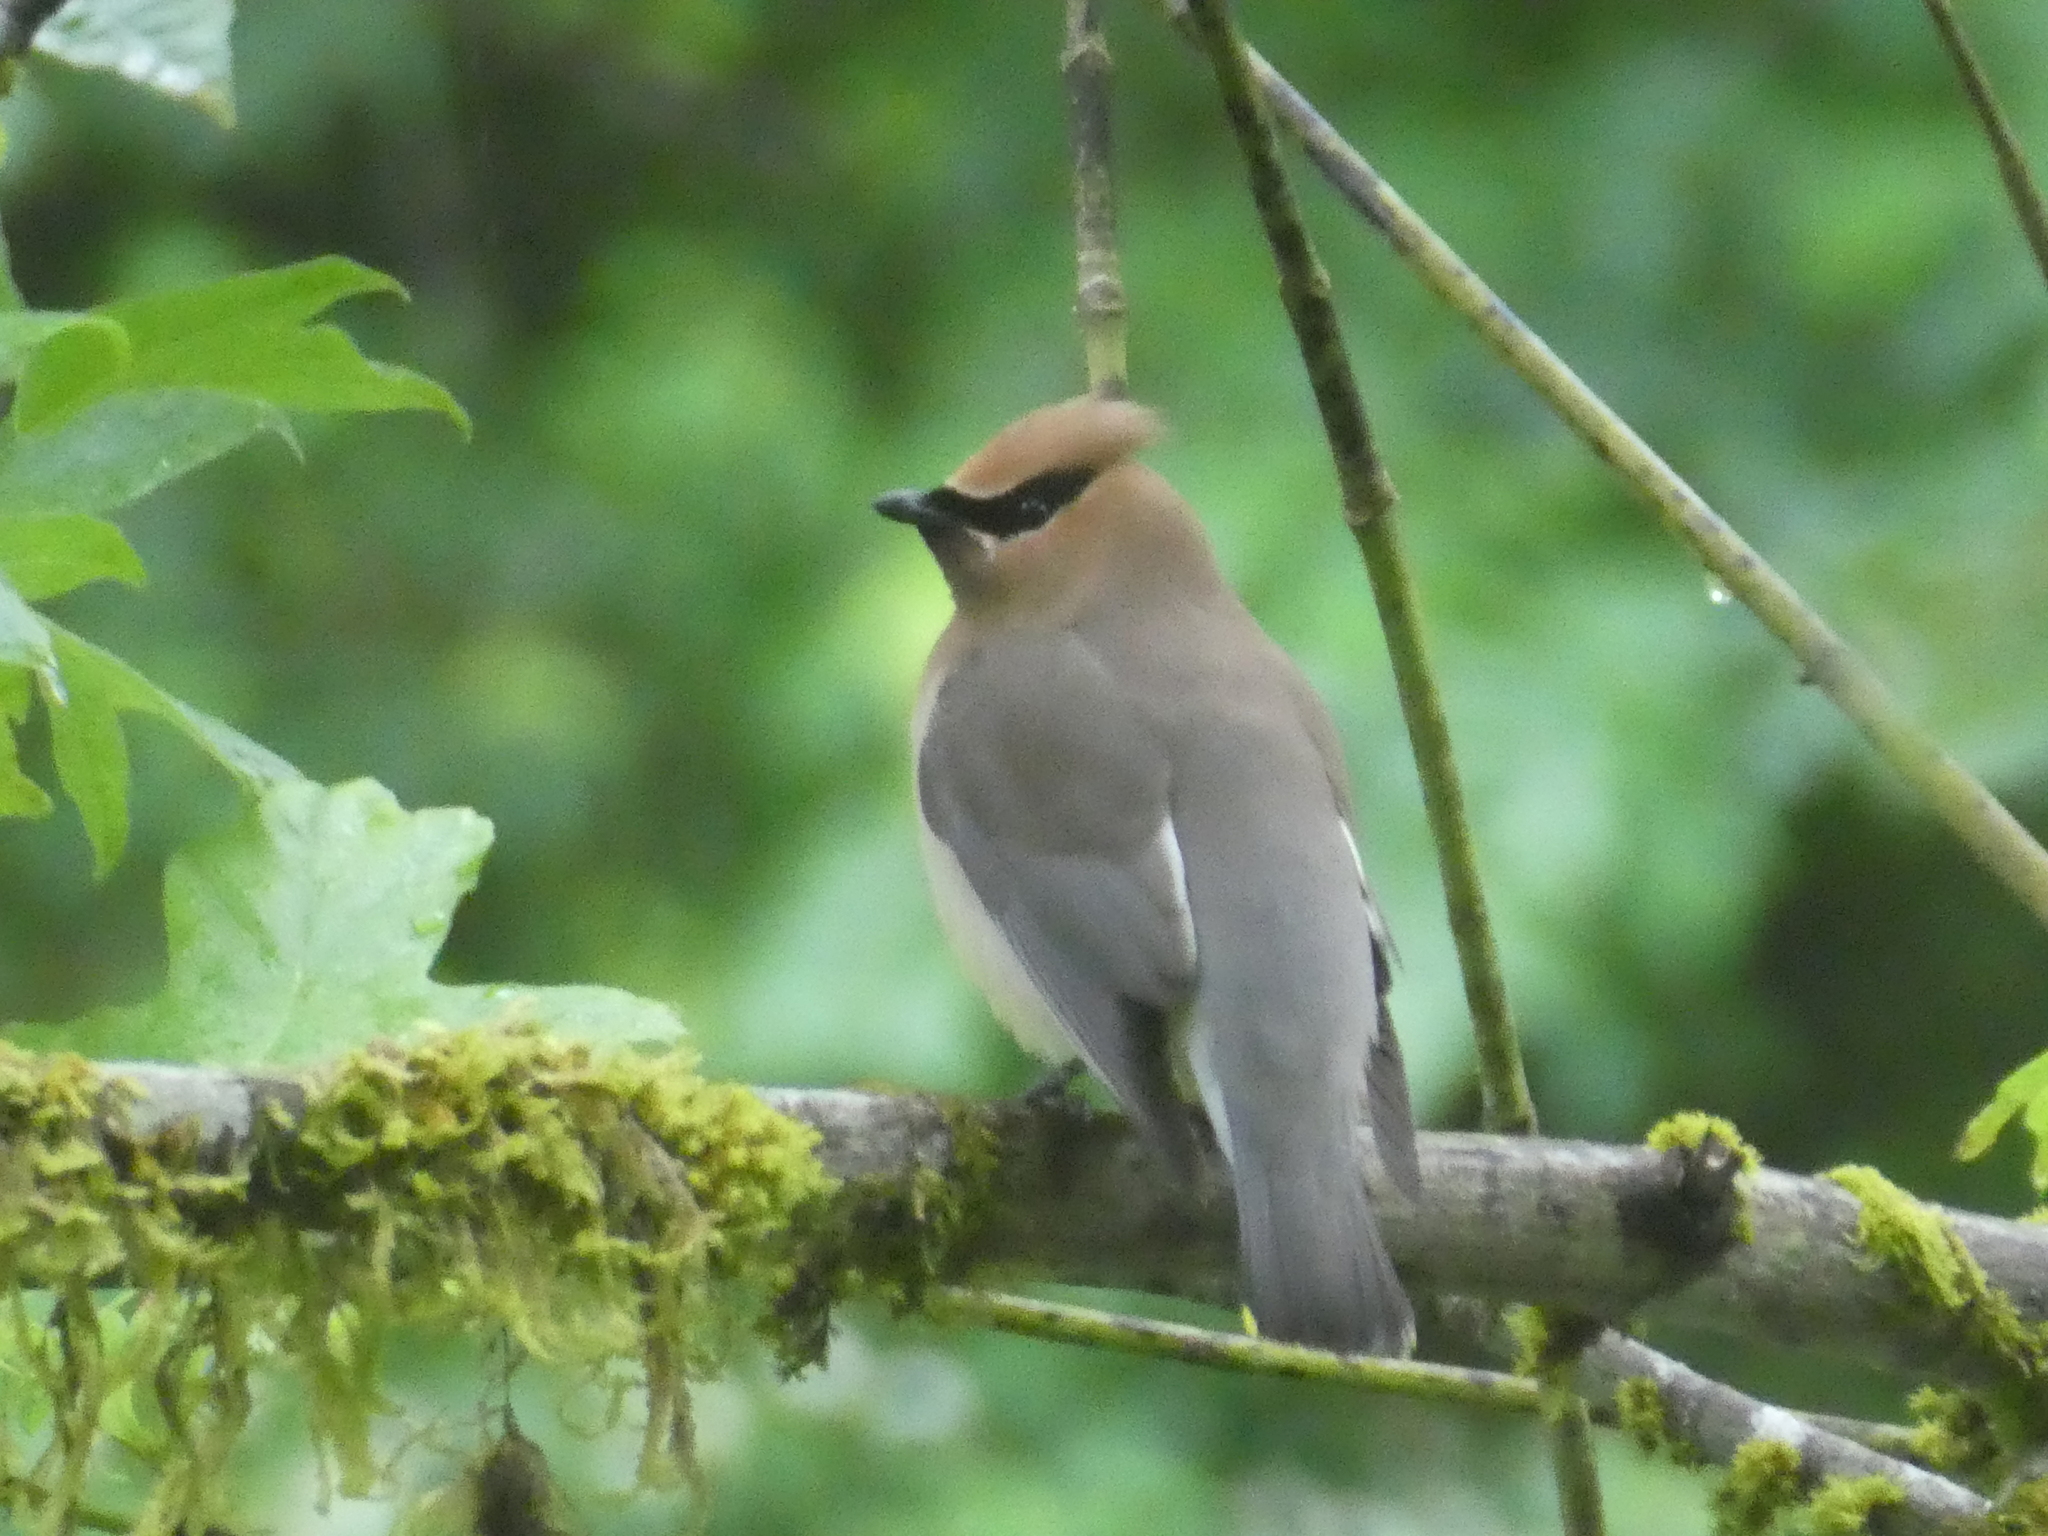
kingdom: Animalia
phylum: Chordata
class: Aves
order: Passeriformes
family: Bombycillidae
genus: Bombycilla
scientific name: Bombycilla cedrorum
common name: Cedar waxwing
